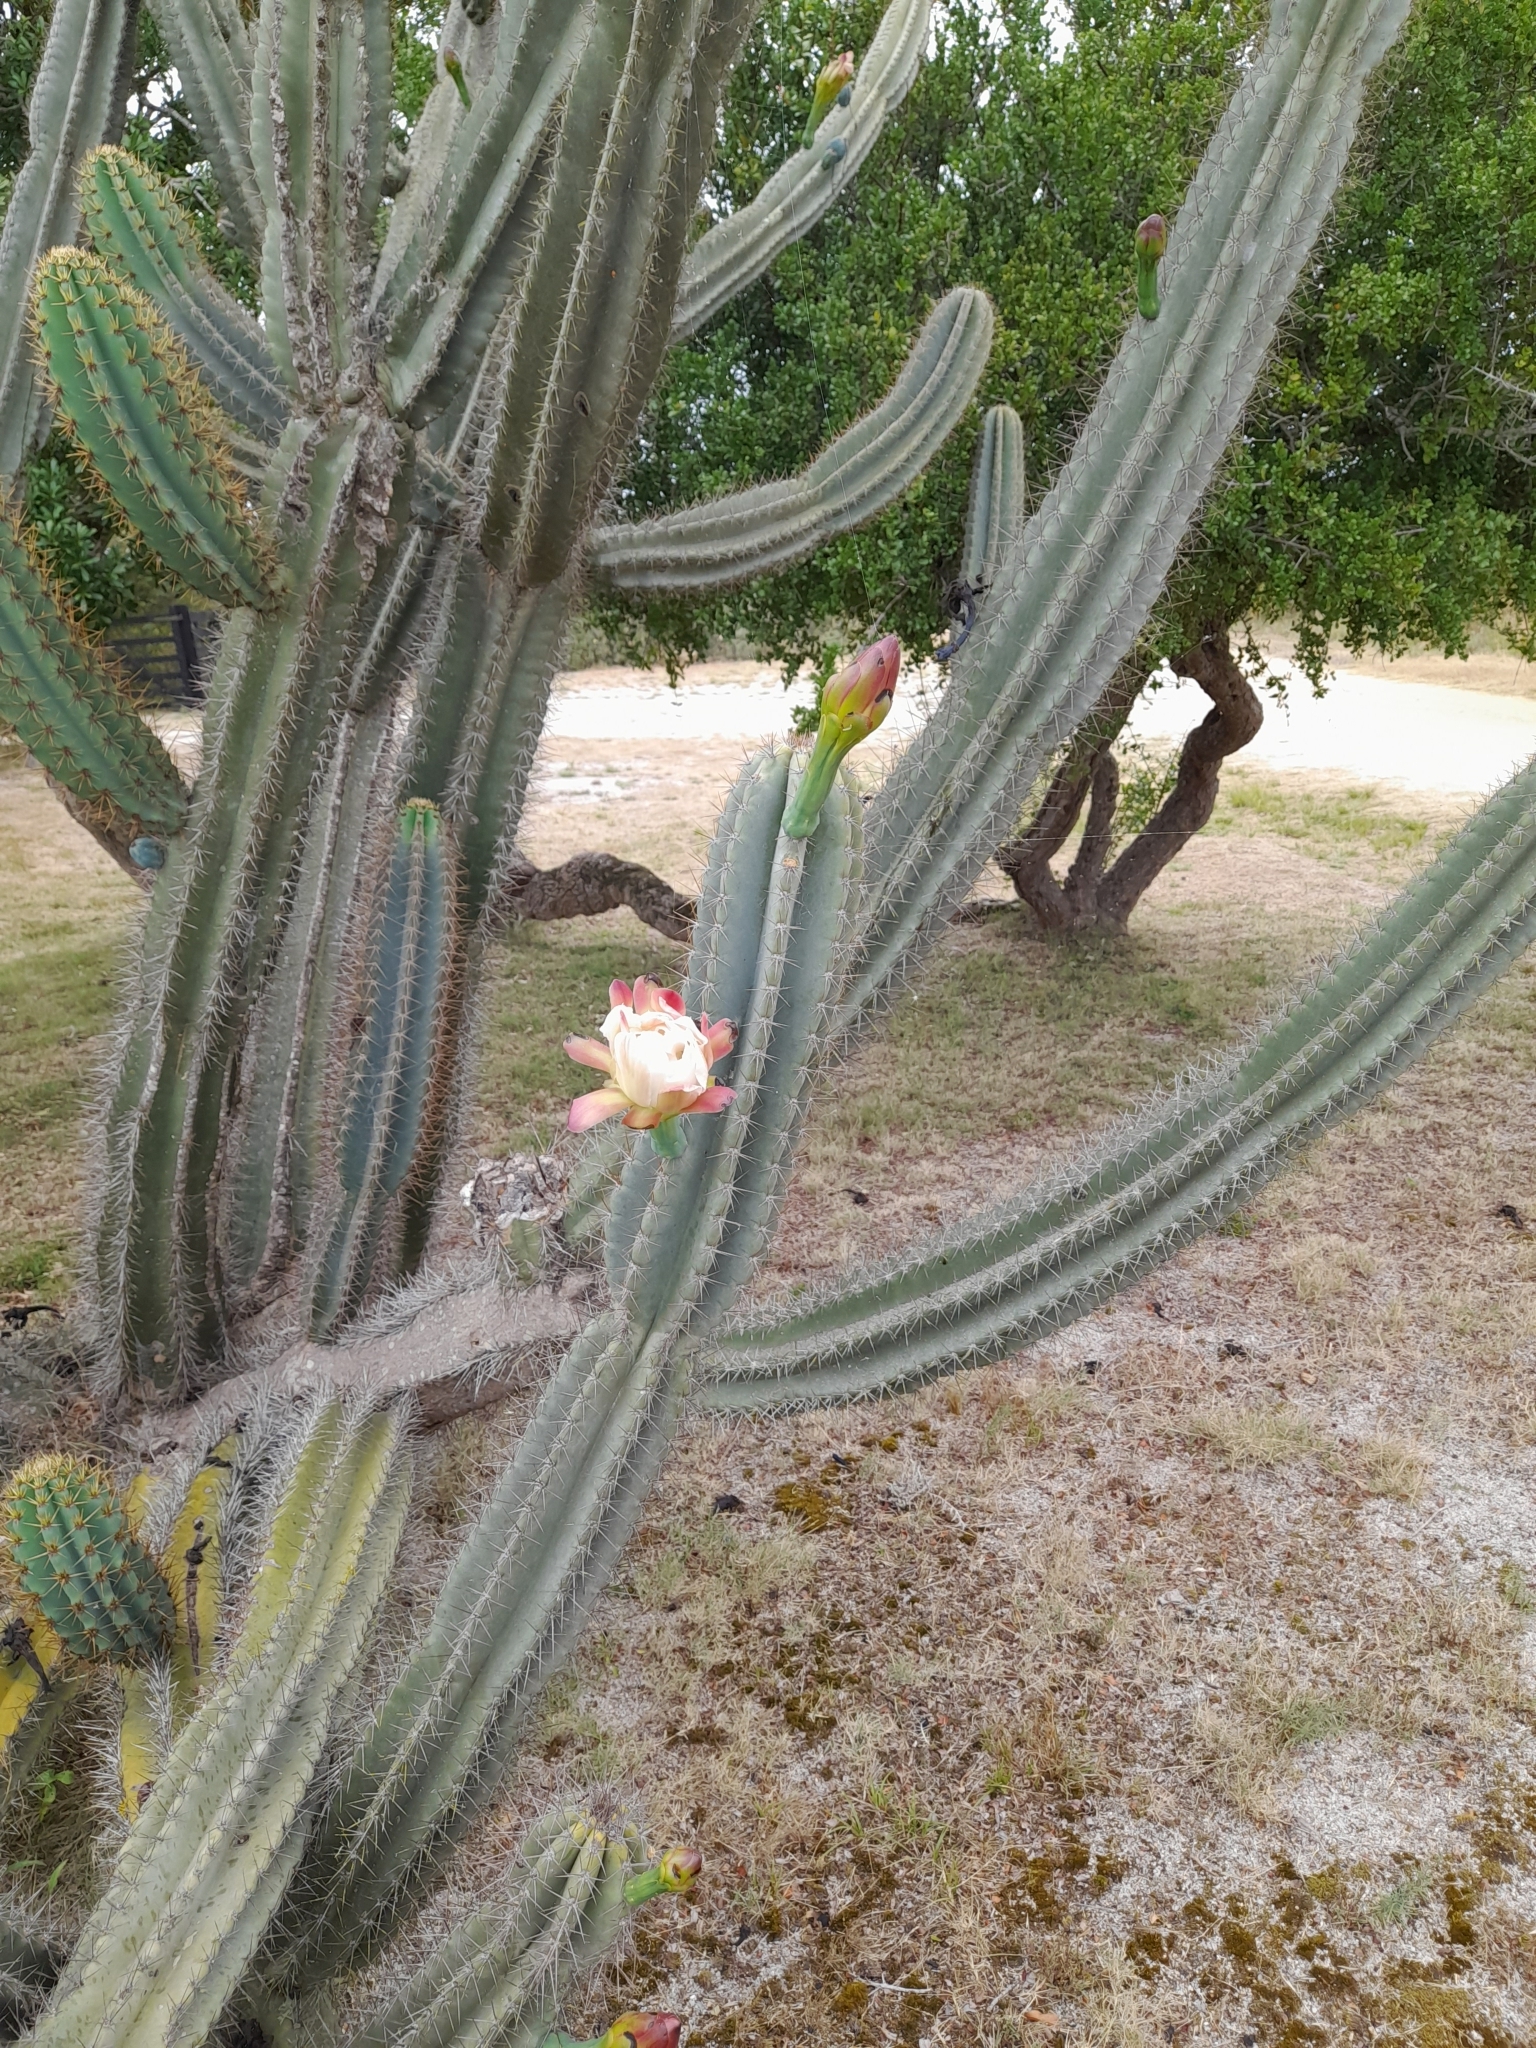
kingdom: Plantae
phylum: Tracheophyta
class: Magnoliopsida
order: Caryophyllales
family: Cactaceae
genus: Cereus
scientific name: Cereus hildmannianus
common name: Hedge cactus
